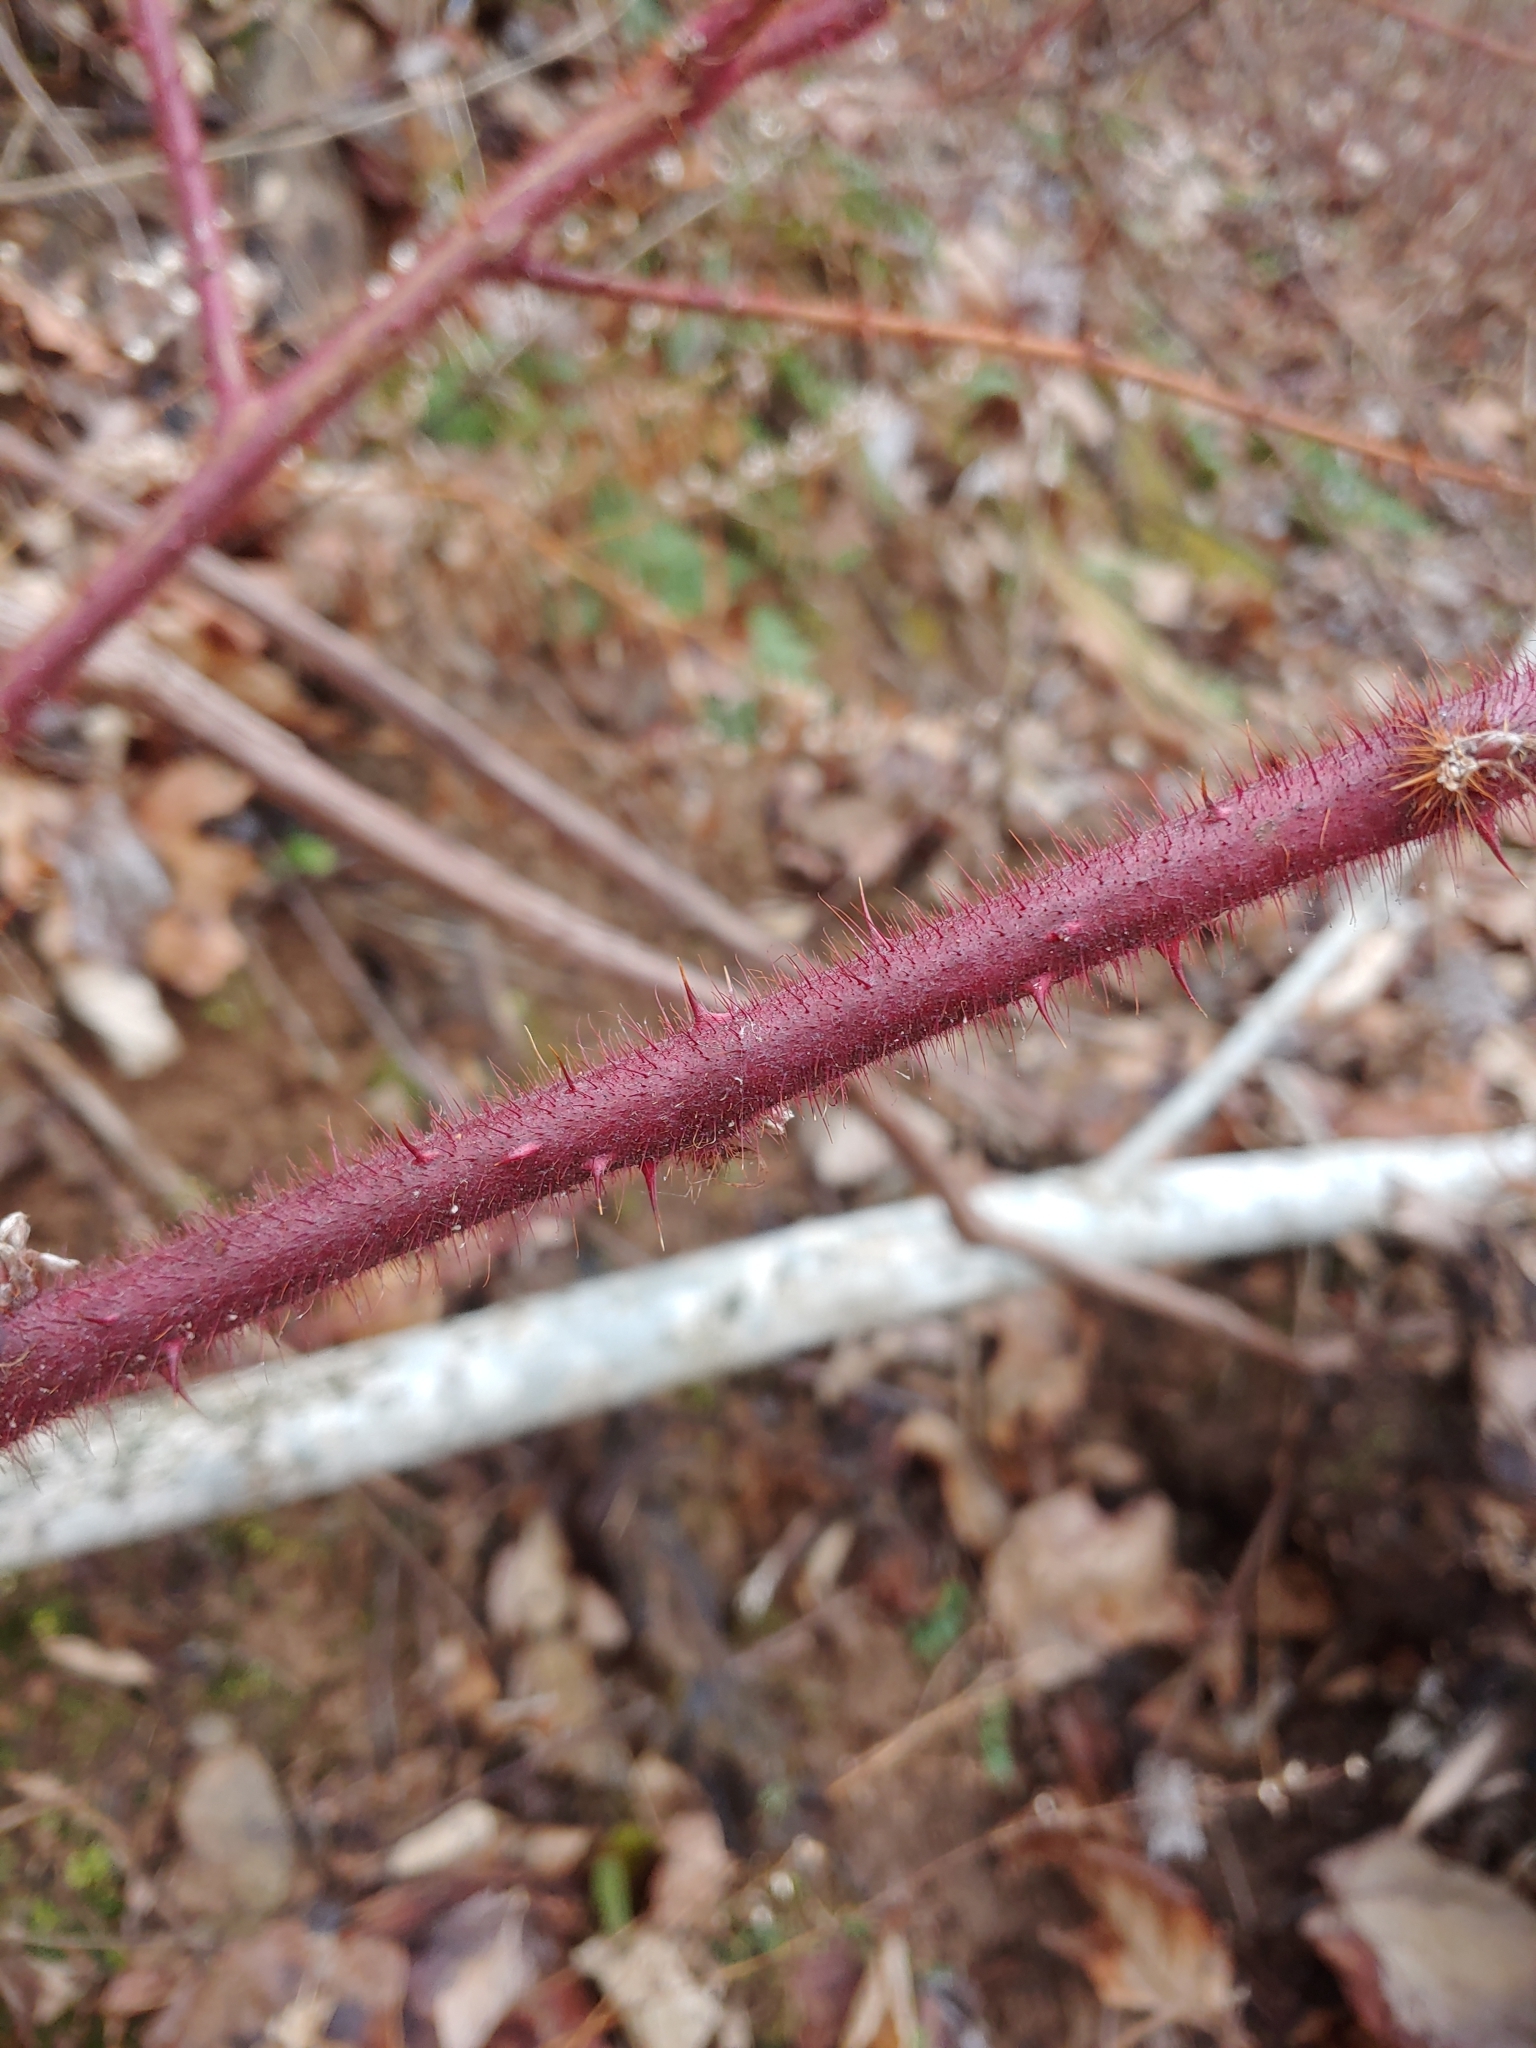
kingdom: Plantae
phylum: Tracheophyta
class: Magnoliopsida
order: Rosales
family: Rosaceae
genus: Rubus
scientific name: Rubus phoenicolasius
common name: Japanese wineberry
